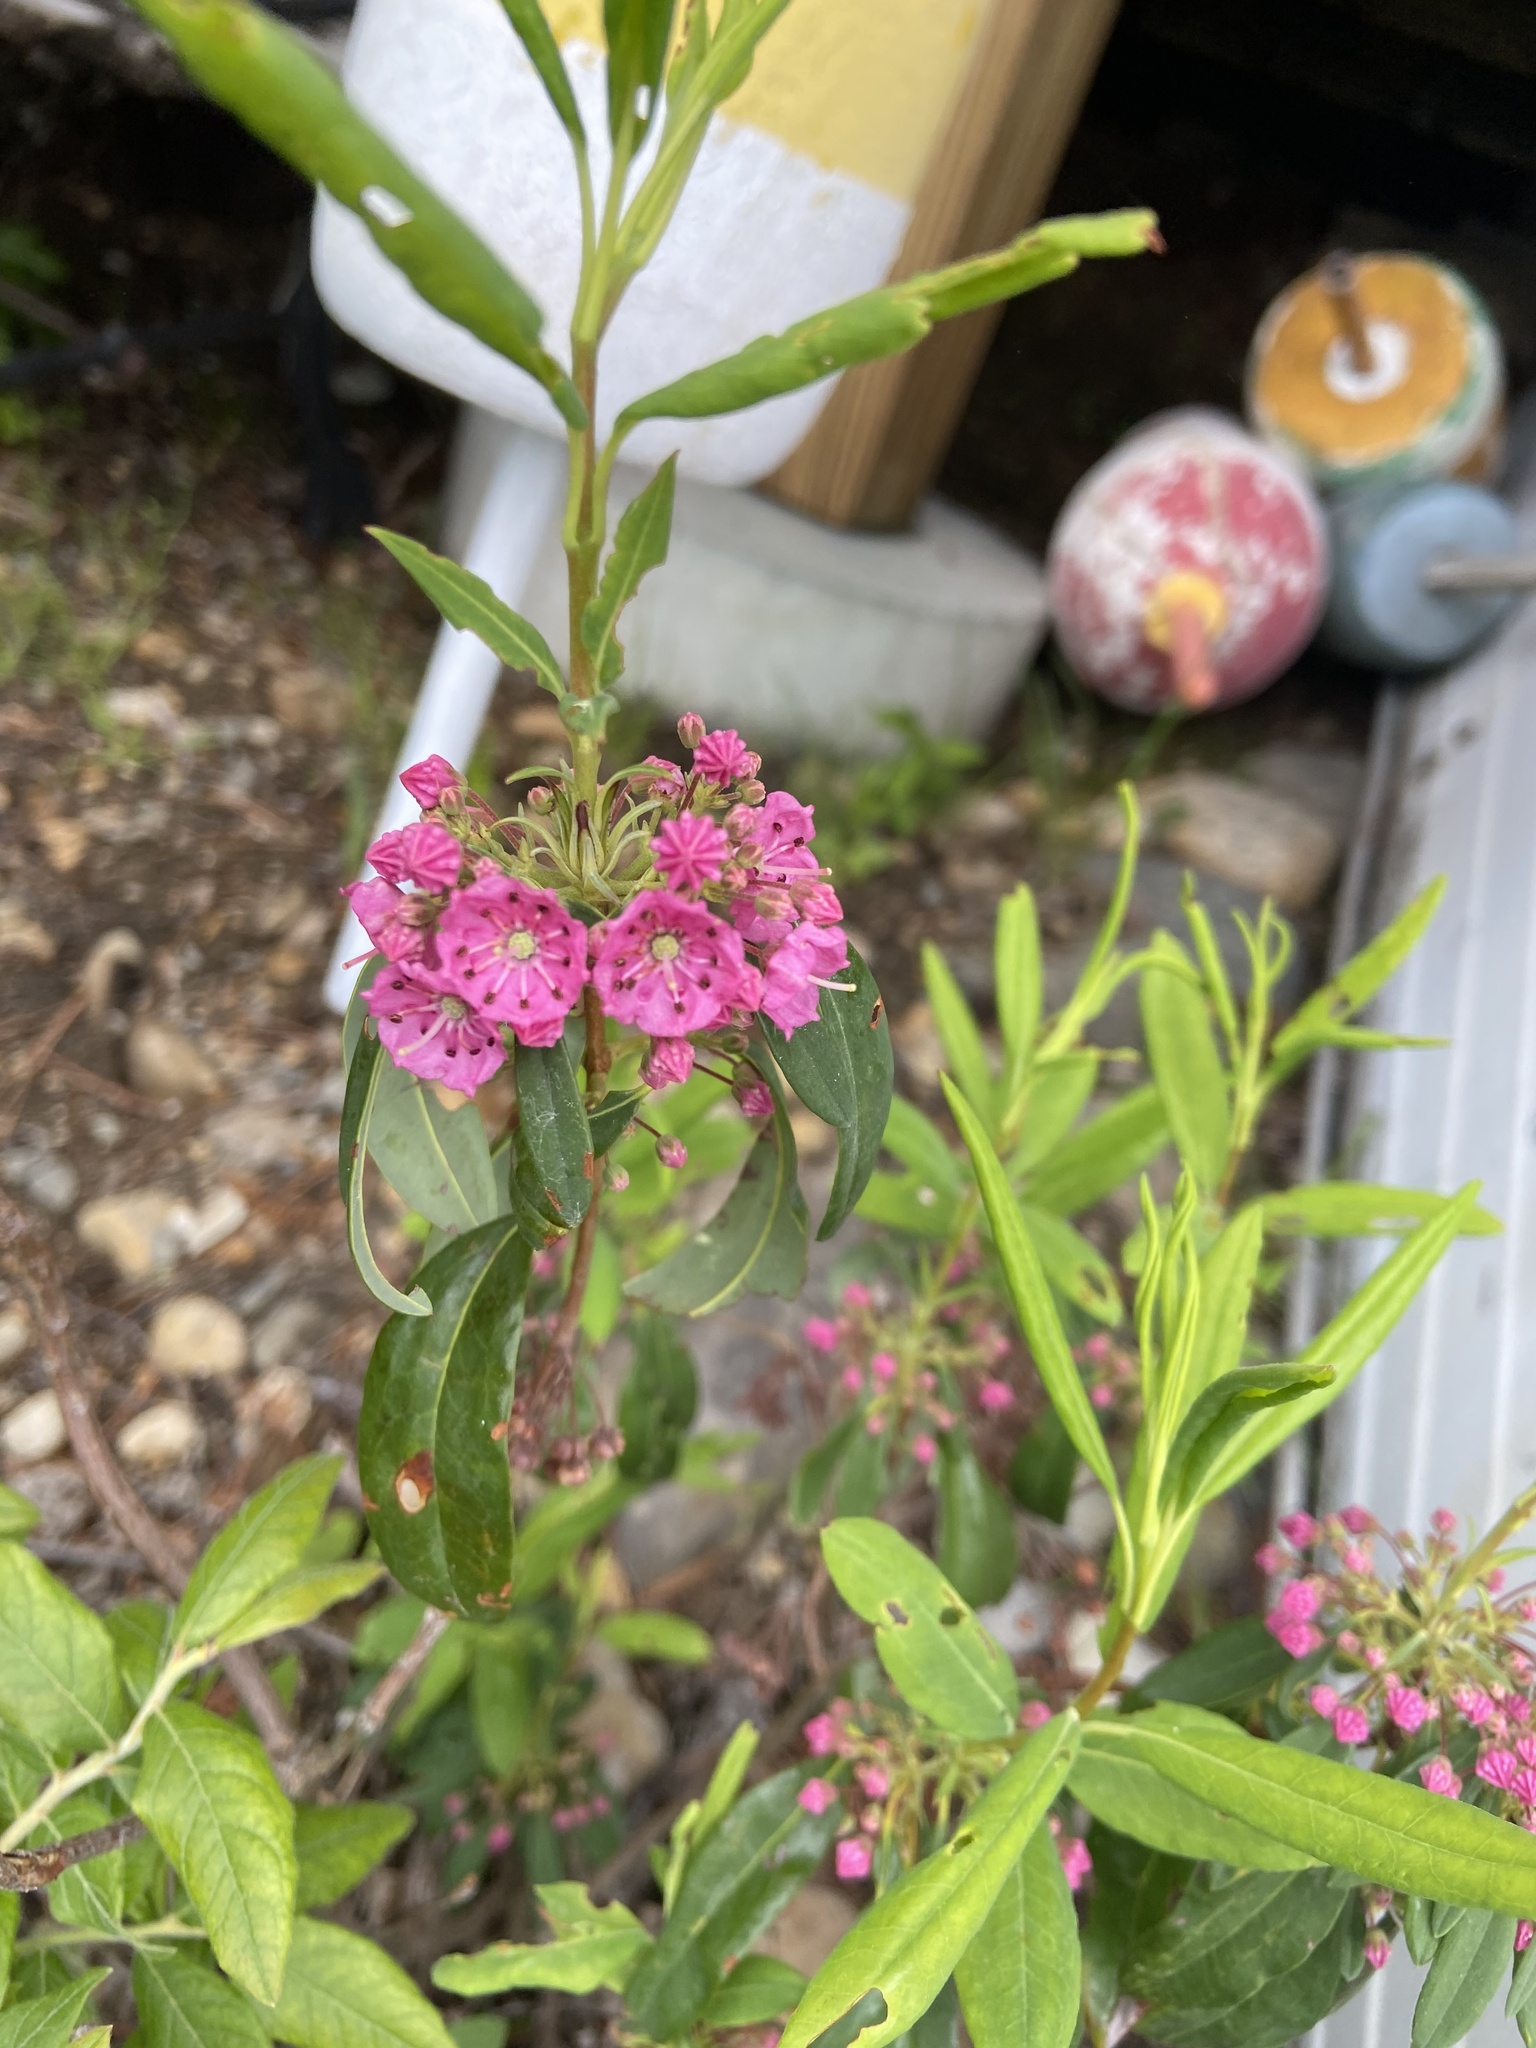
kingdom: Plantae
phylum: Tracheophyta
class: Magnoliopsida
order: Ericales
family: Ericaceae
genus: Kalmia
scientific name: Kalmia angustifolia
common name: Sheep-laurel
